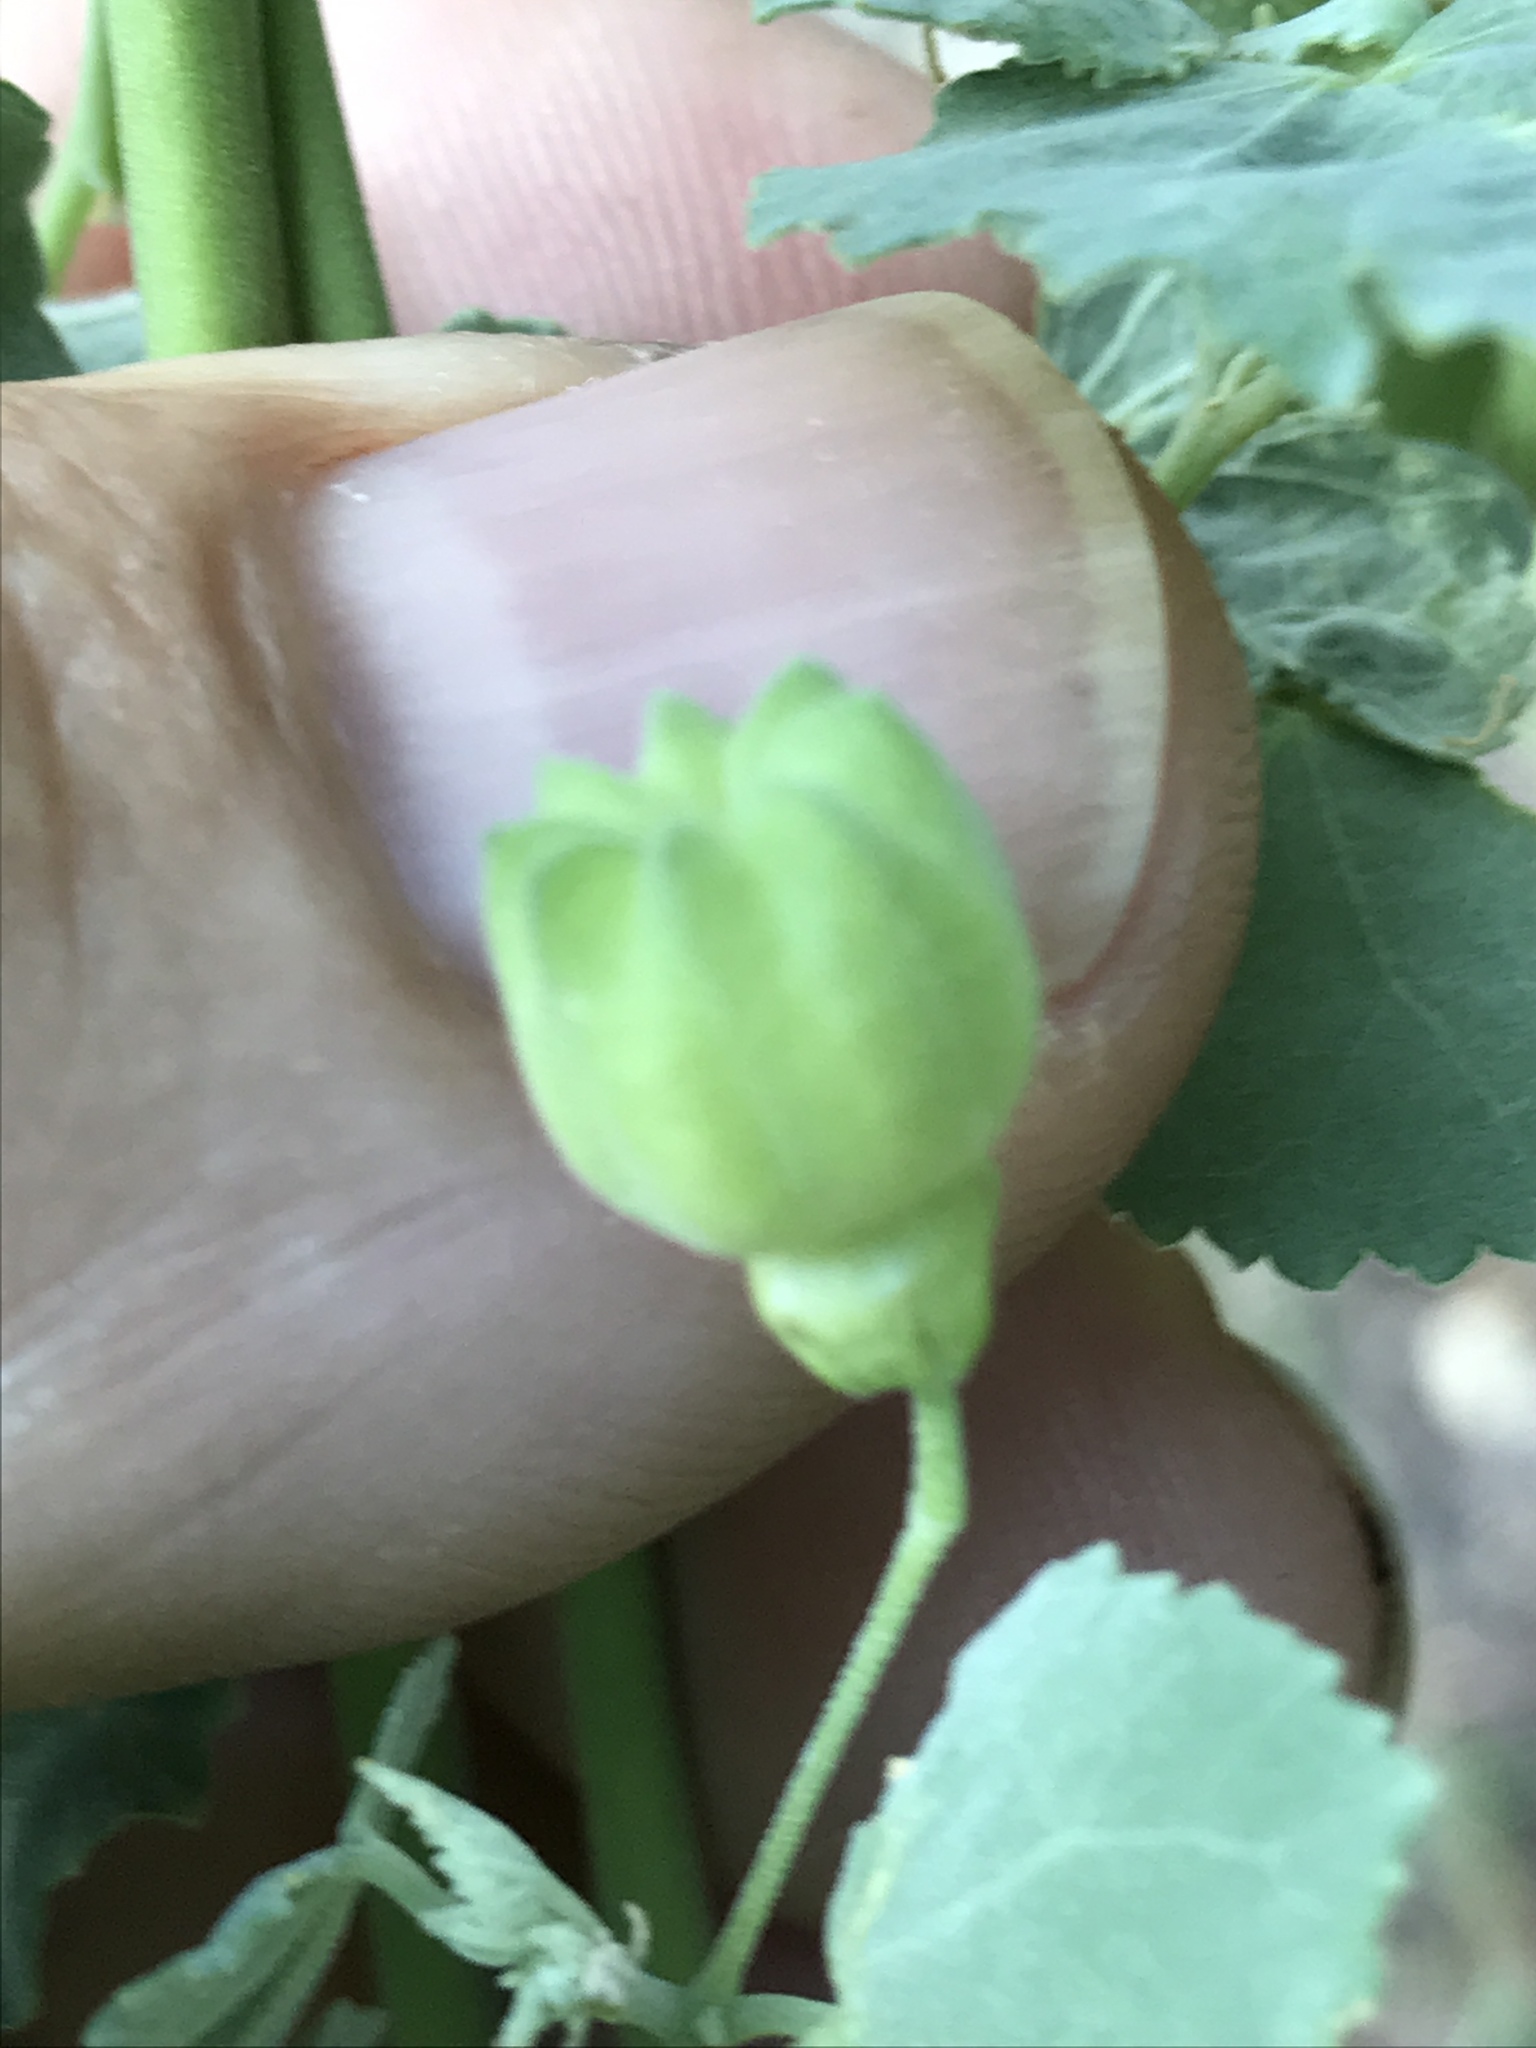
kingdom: Plantae
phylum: Tracheophyta
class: Magnoliopsida
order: Malvales
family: Malvaceae
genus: Abutilon
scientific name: Abutilon fruticosum
